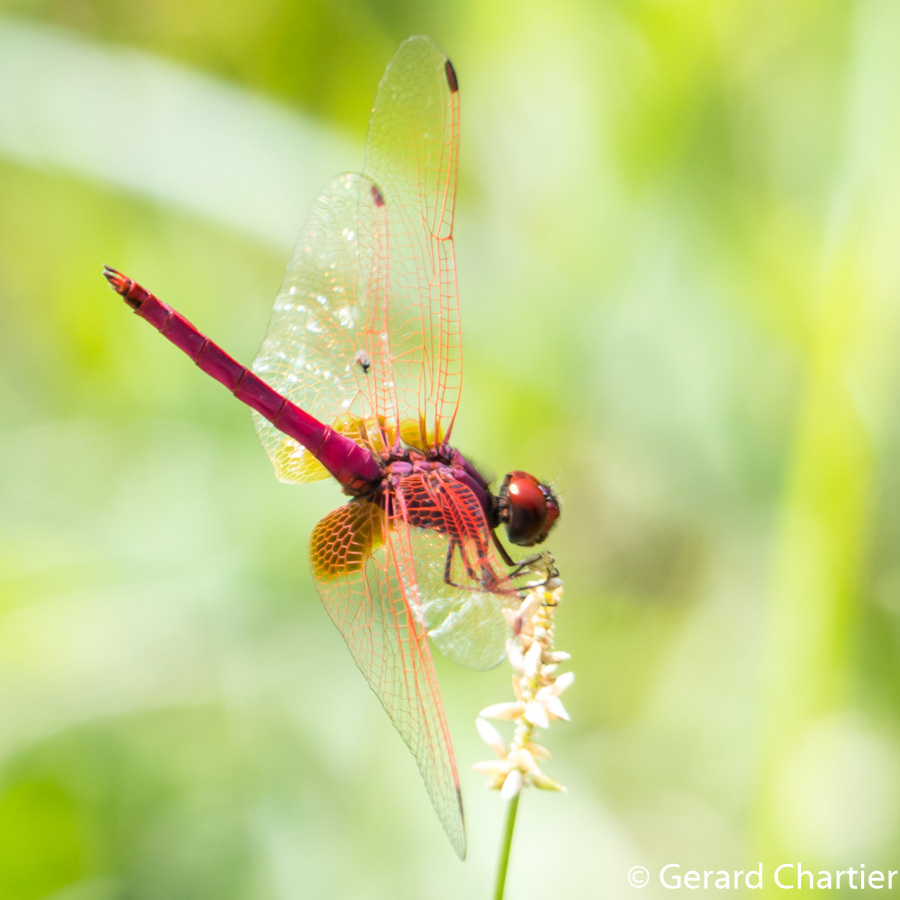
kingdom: Animalia
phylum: Arthropoda
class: Insecta
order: Odonata
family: Libellulidae
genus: Trithemis
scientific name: Trithemis aurora
